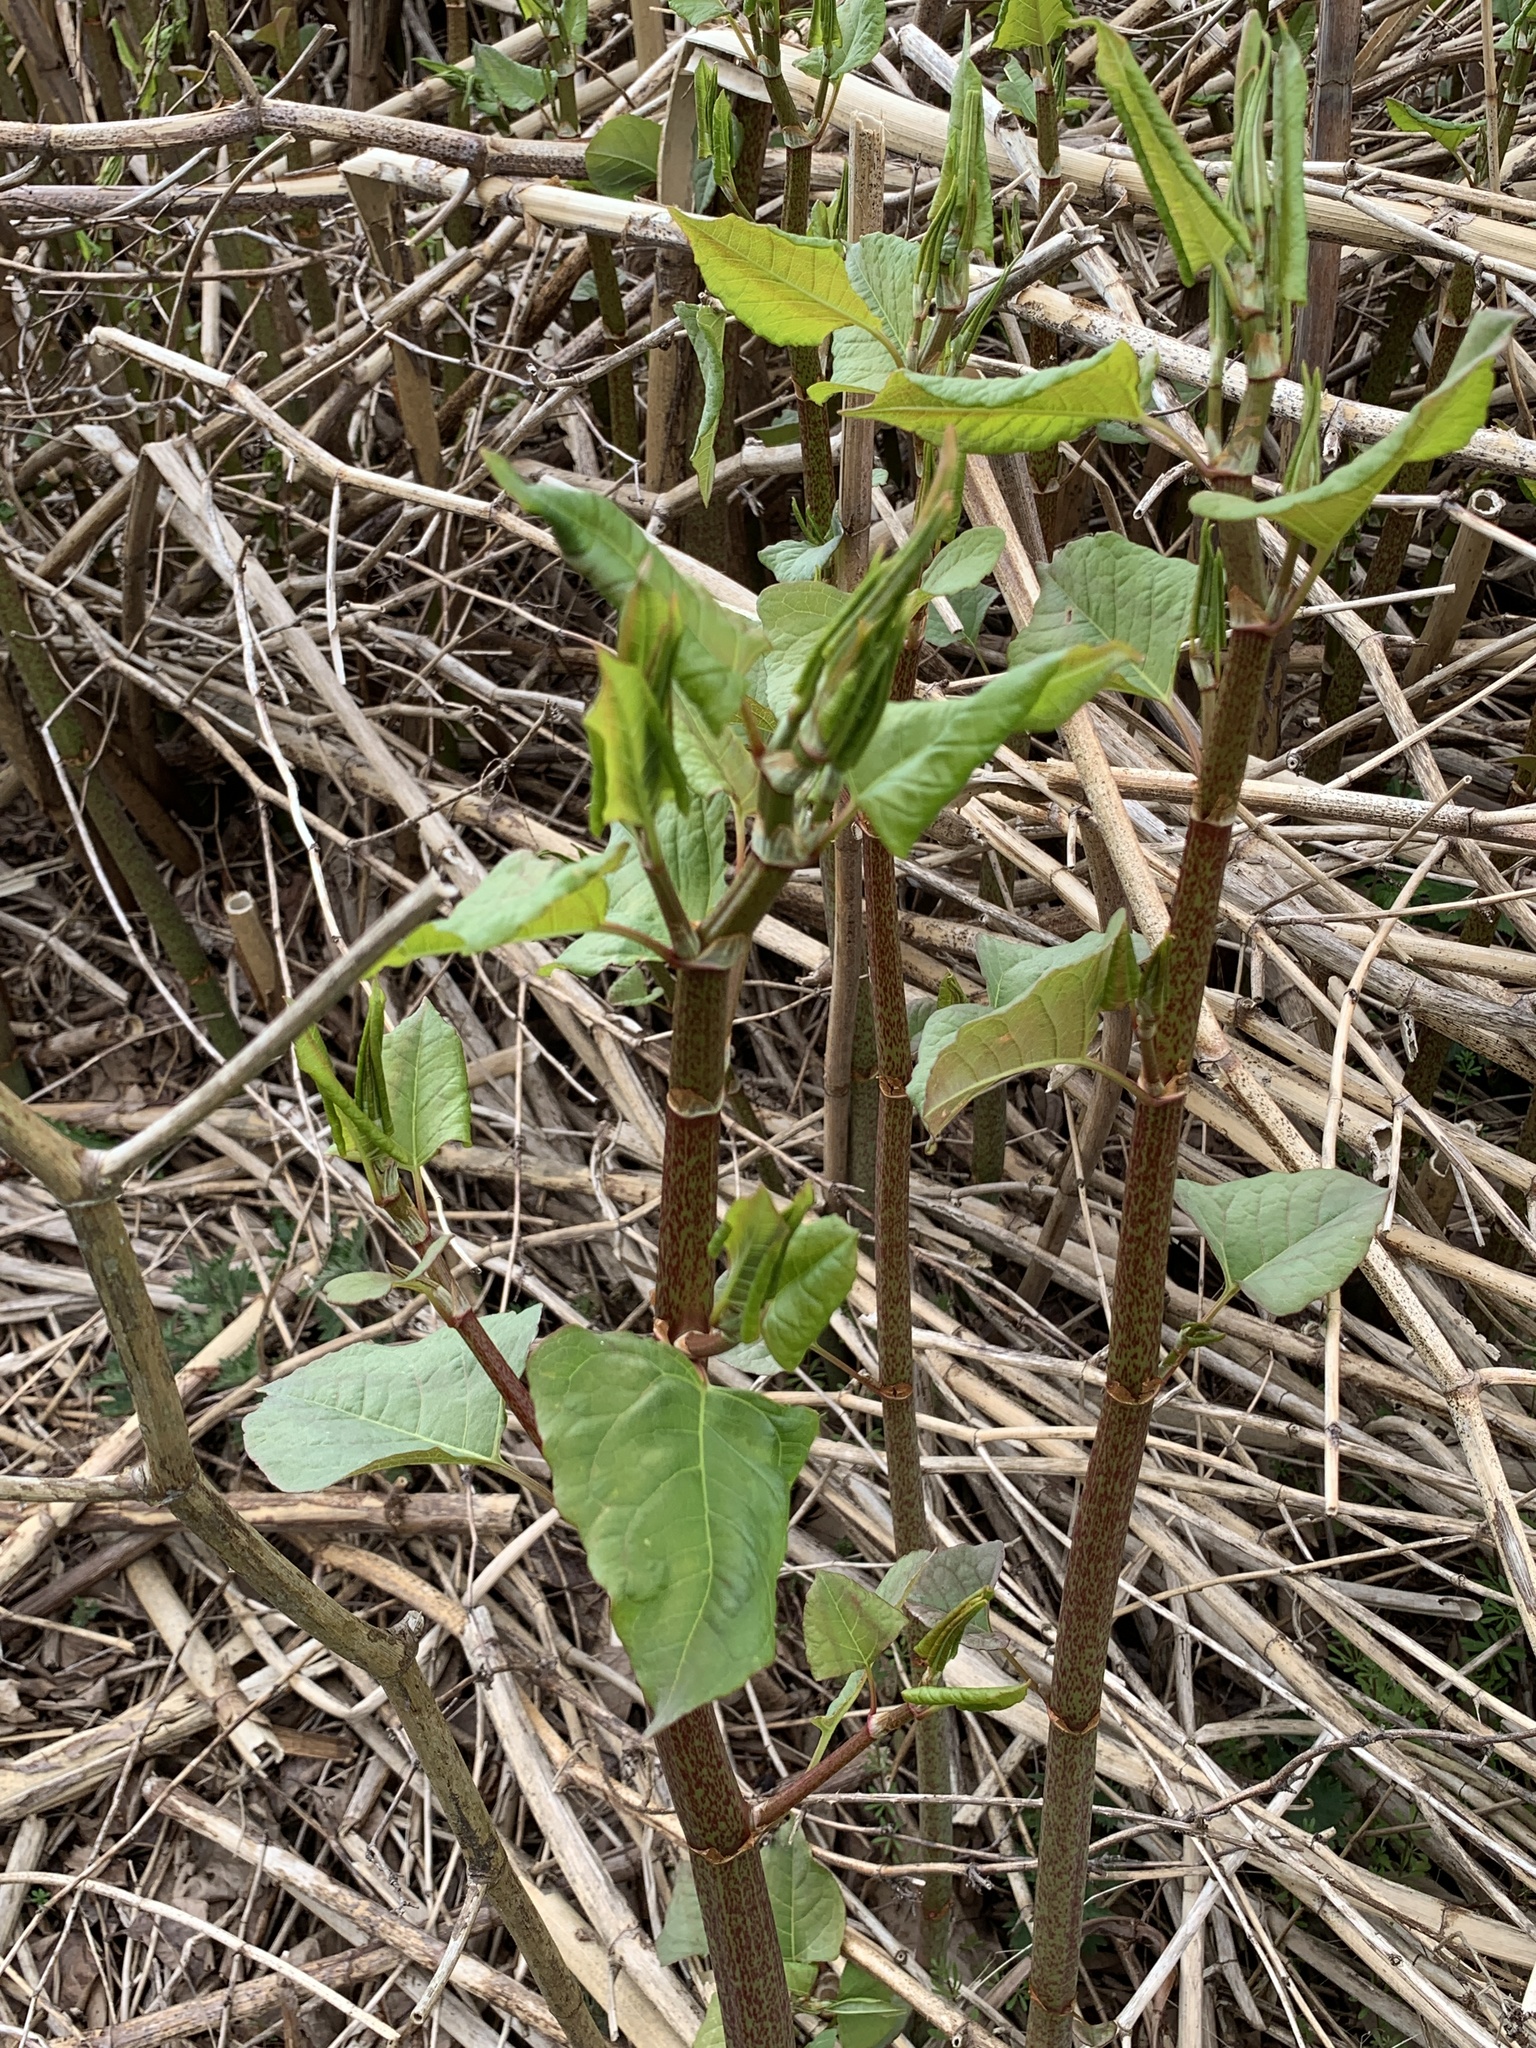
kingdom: Plantae
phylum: Tracheophyta
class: Magnoliopsida
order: Caryophyllales
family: Polygonaceae
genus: Reynoutria
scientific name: Reynoutria japonica
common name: Japanese knotweed
